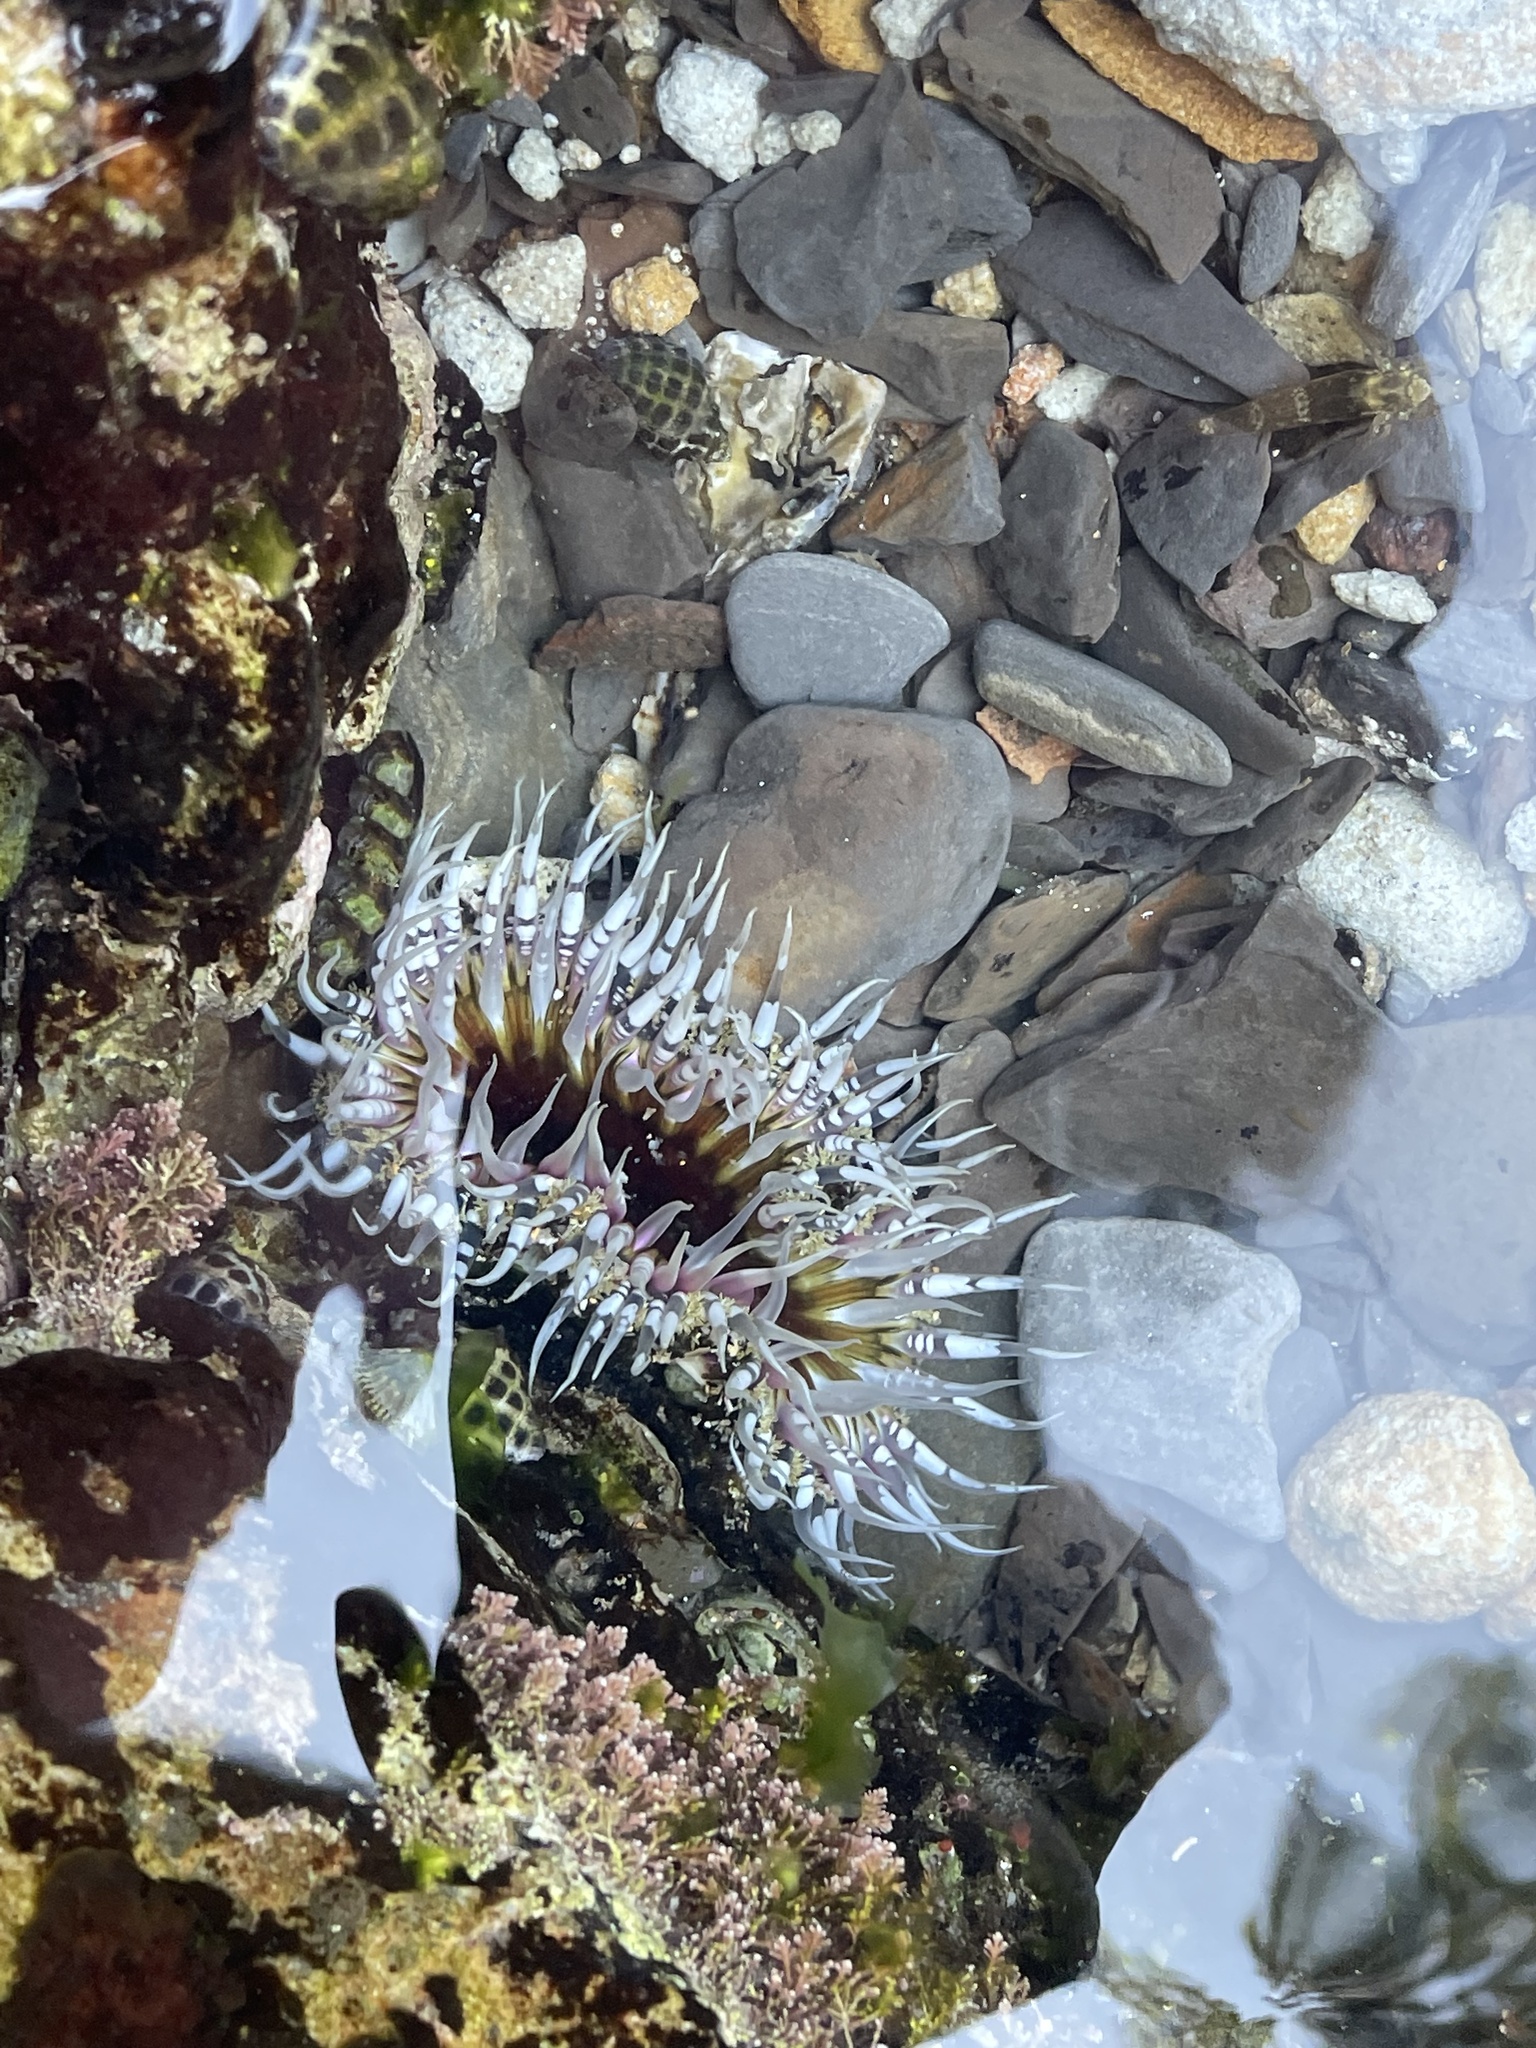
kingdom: Animalia
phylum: Cnidaria
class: Anthozoa
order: Actiniaria
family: Actiniidae
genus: Oulactis
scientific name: Oulactis muscosa
